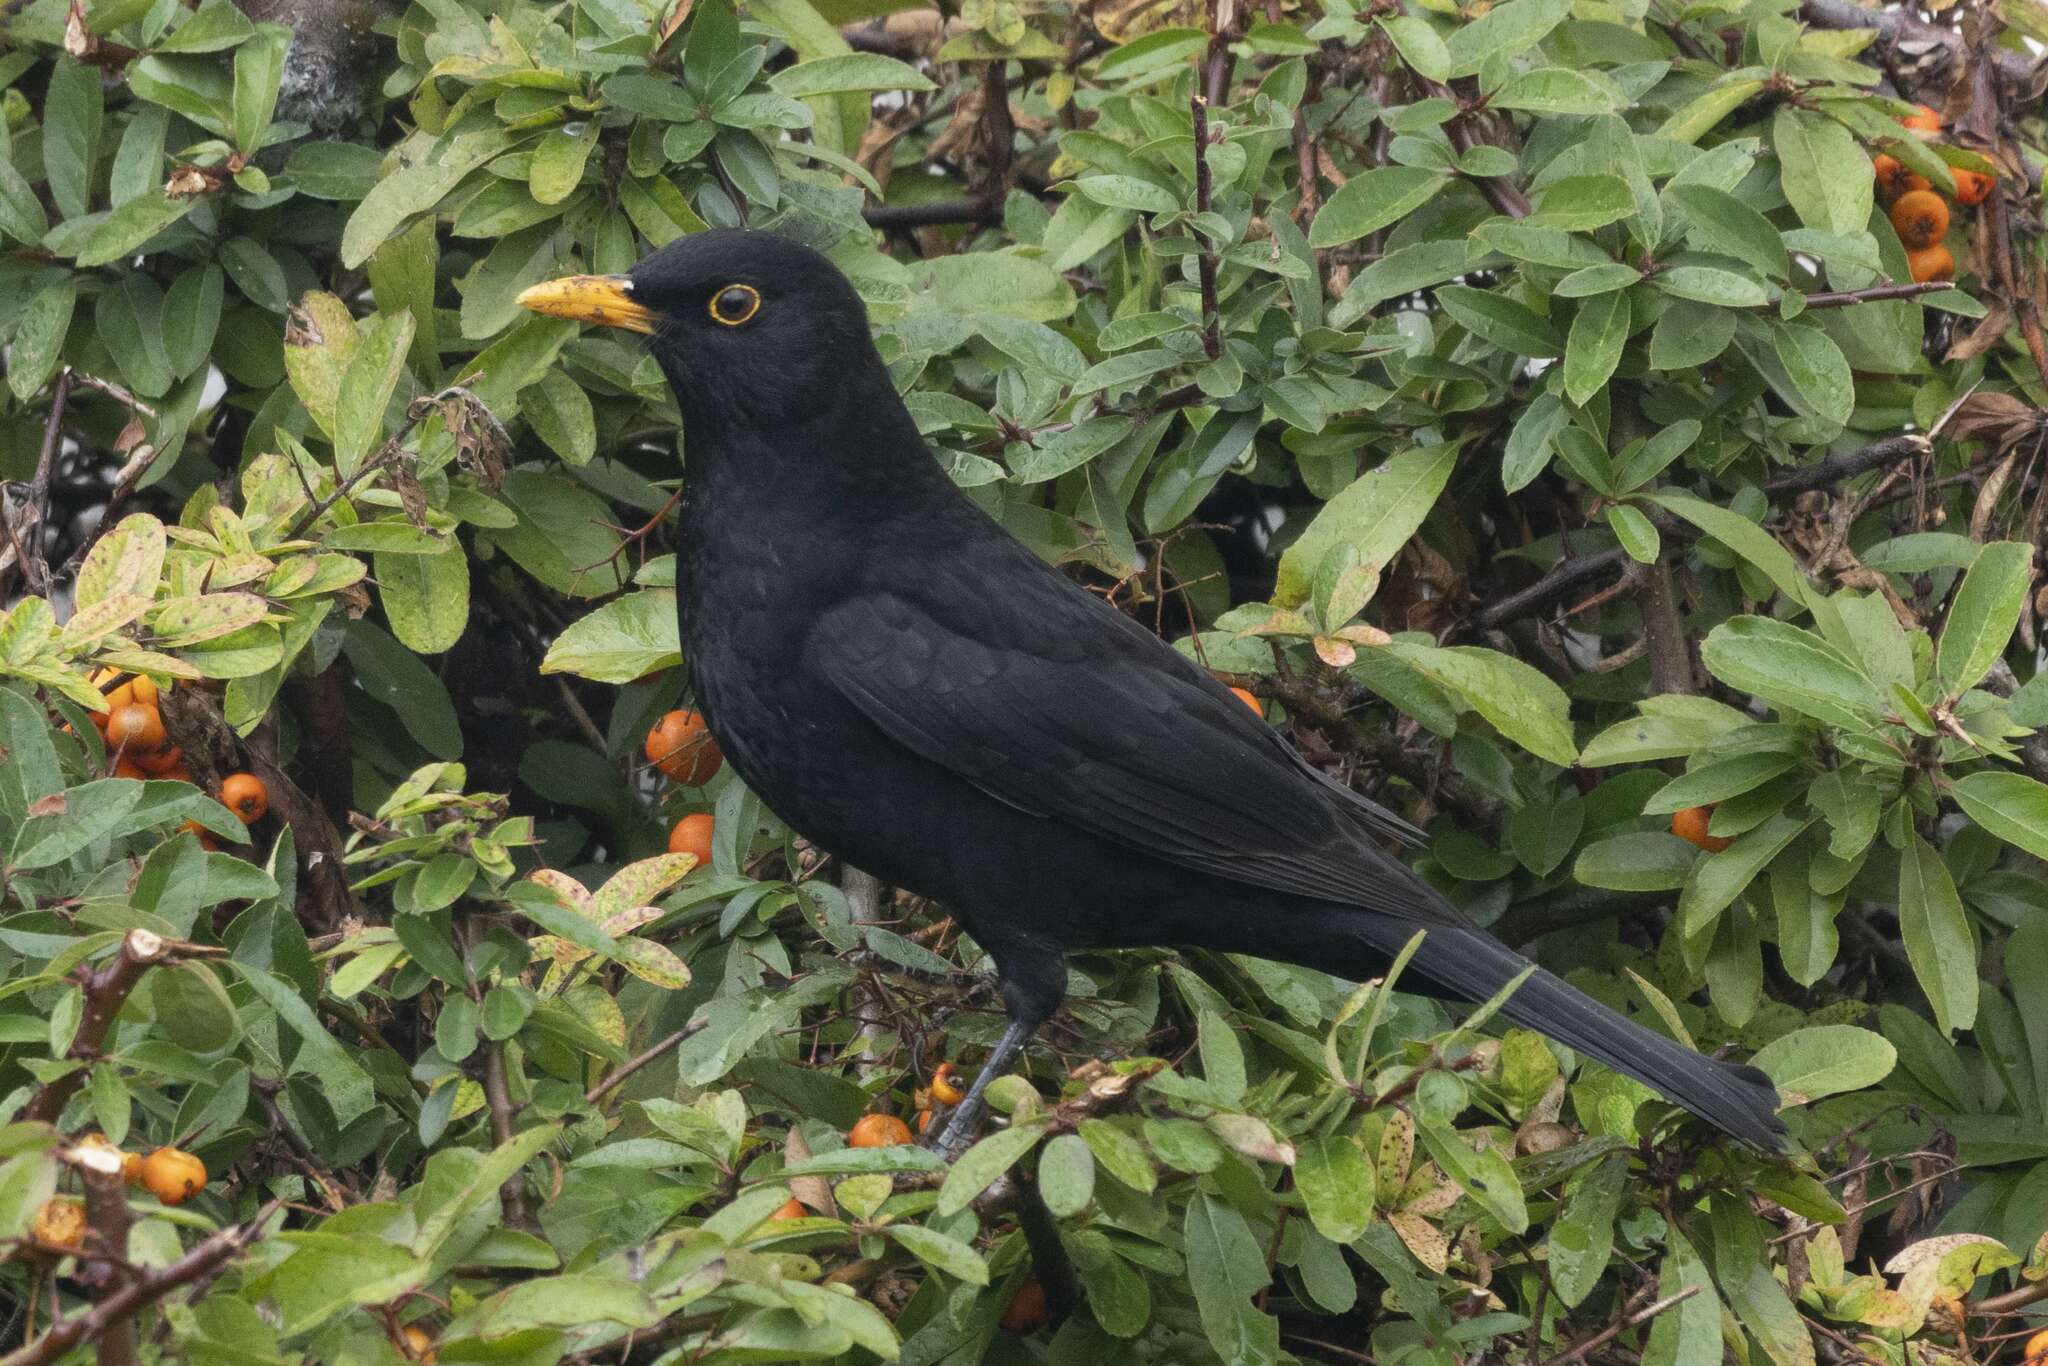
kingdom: Animalia
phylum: Chordata
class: Aves
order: Passeriformes
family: Turdidae
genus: Turdus
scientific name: Turdus merula
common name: Common blackbird
